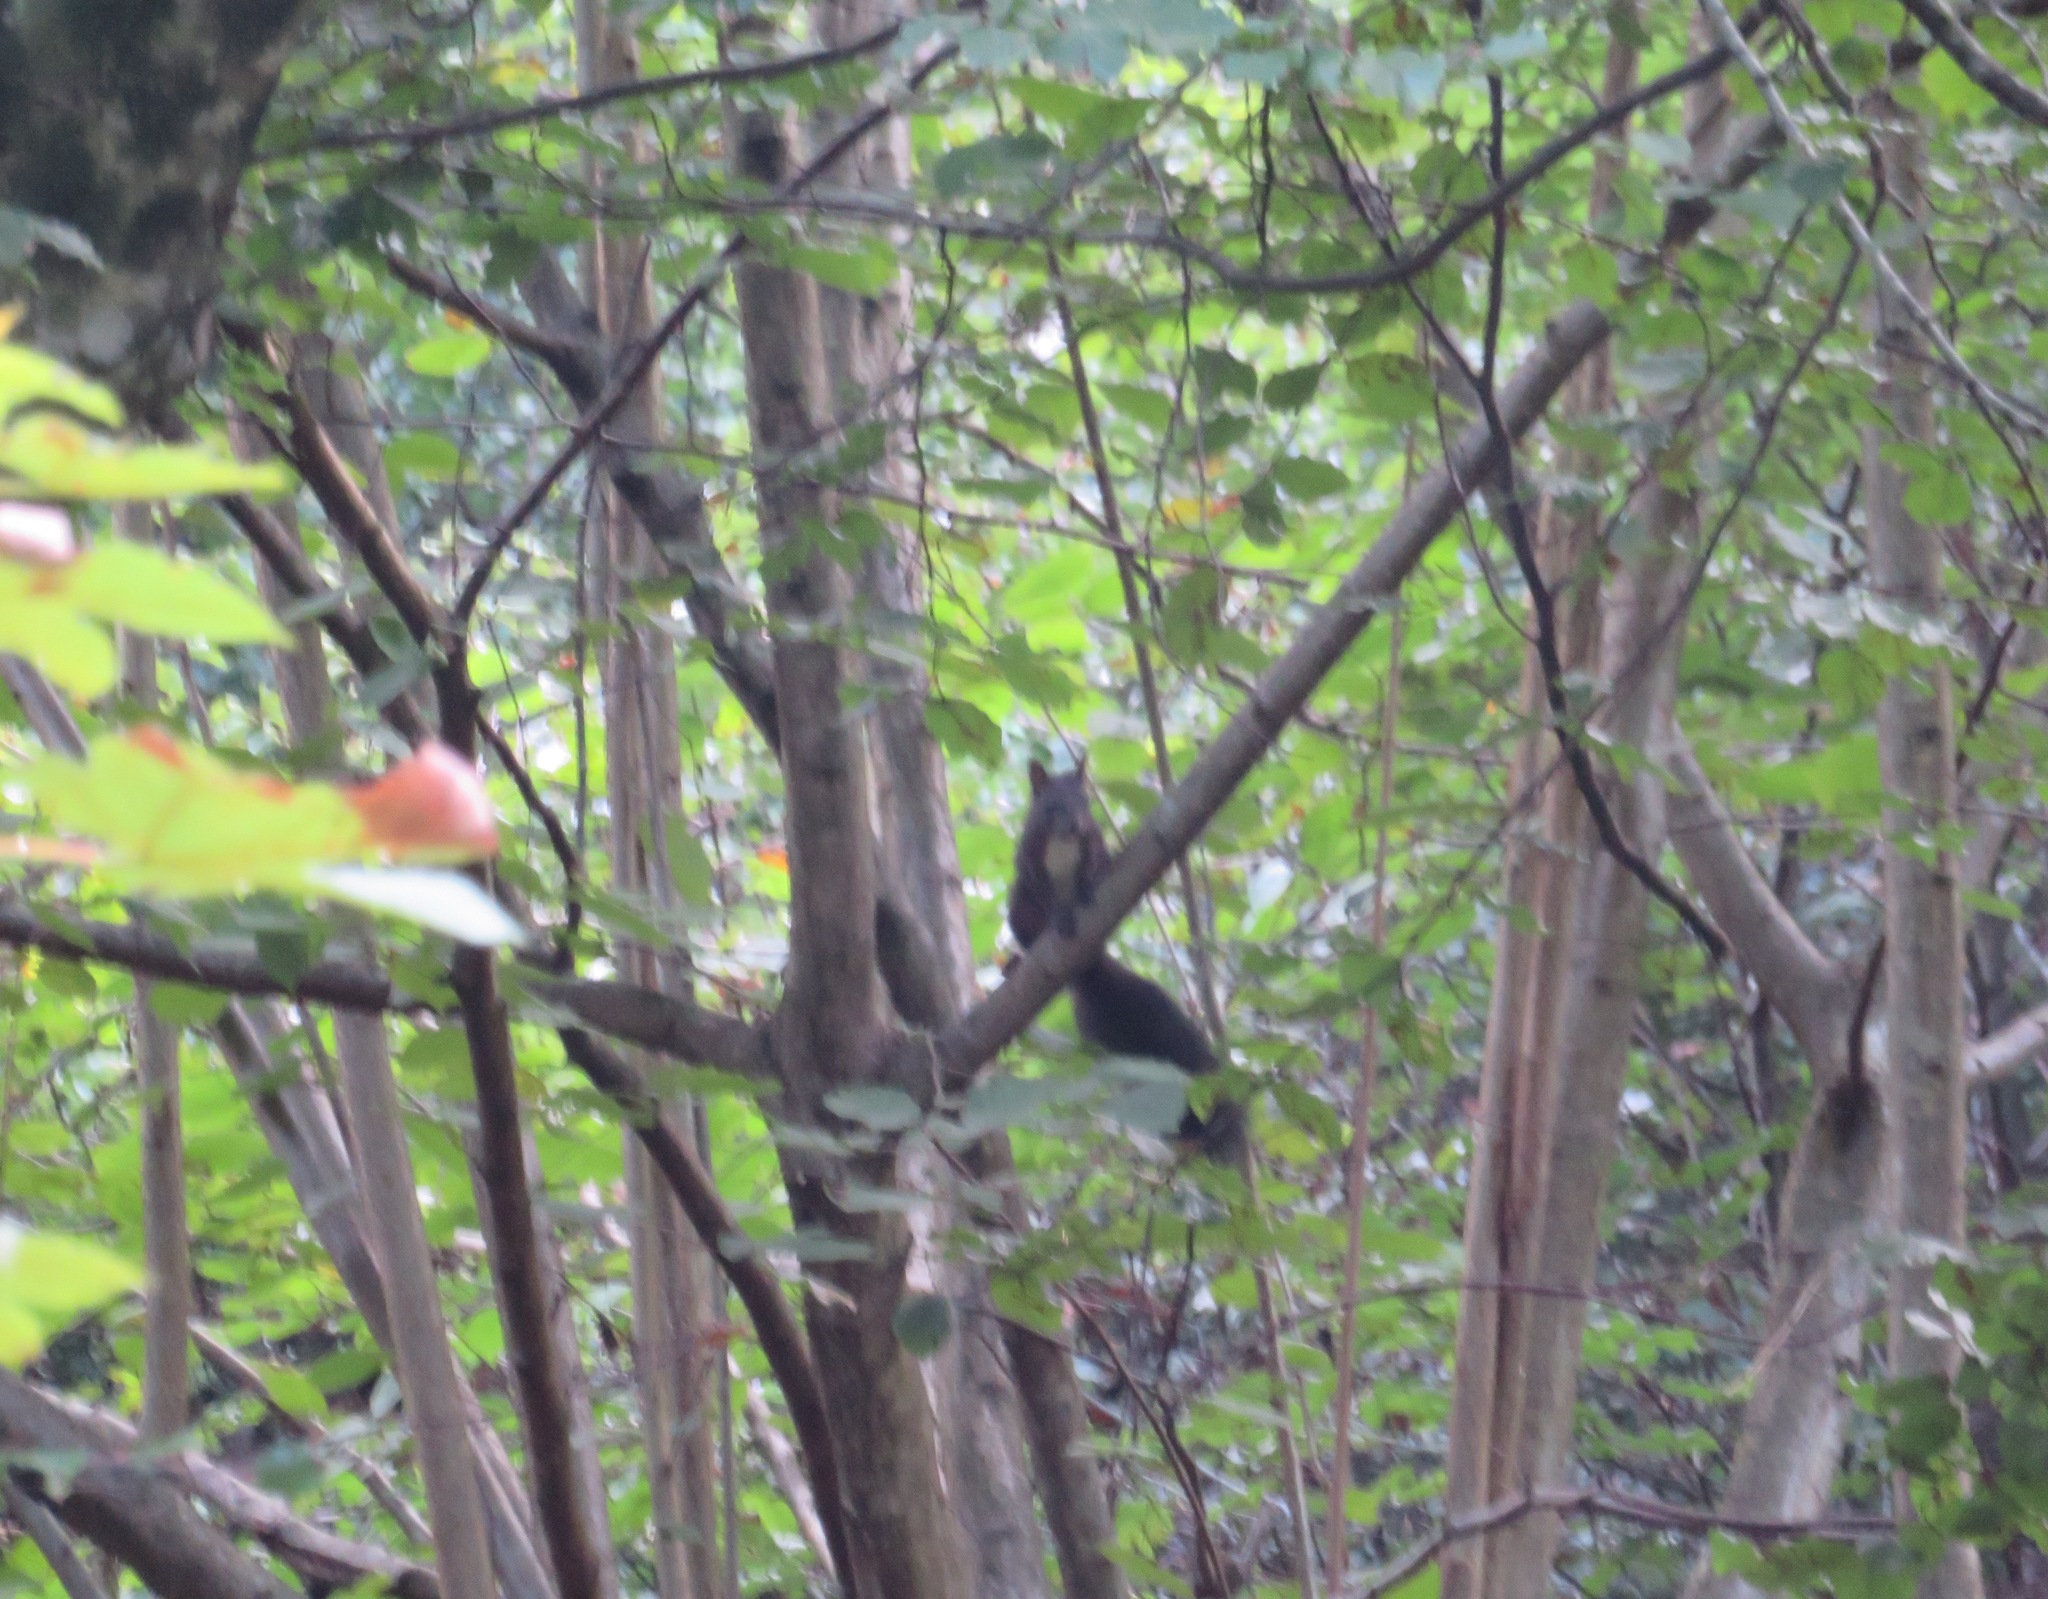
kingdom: Animalia
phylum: Chordata
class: Mammalia
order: Rodentia
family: Sciuridae
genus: Sciurus
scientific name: Sciurus vulgaris
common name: Eurasian red squirrel
